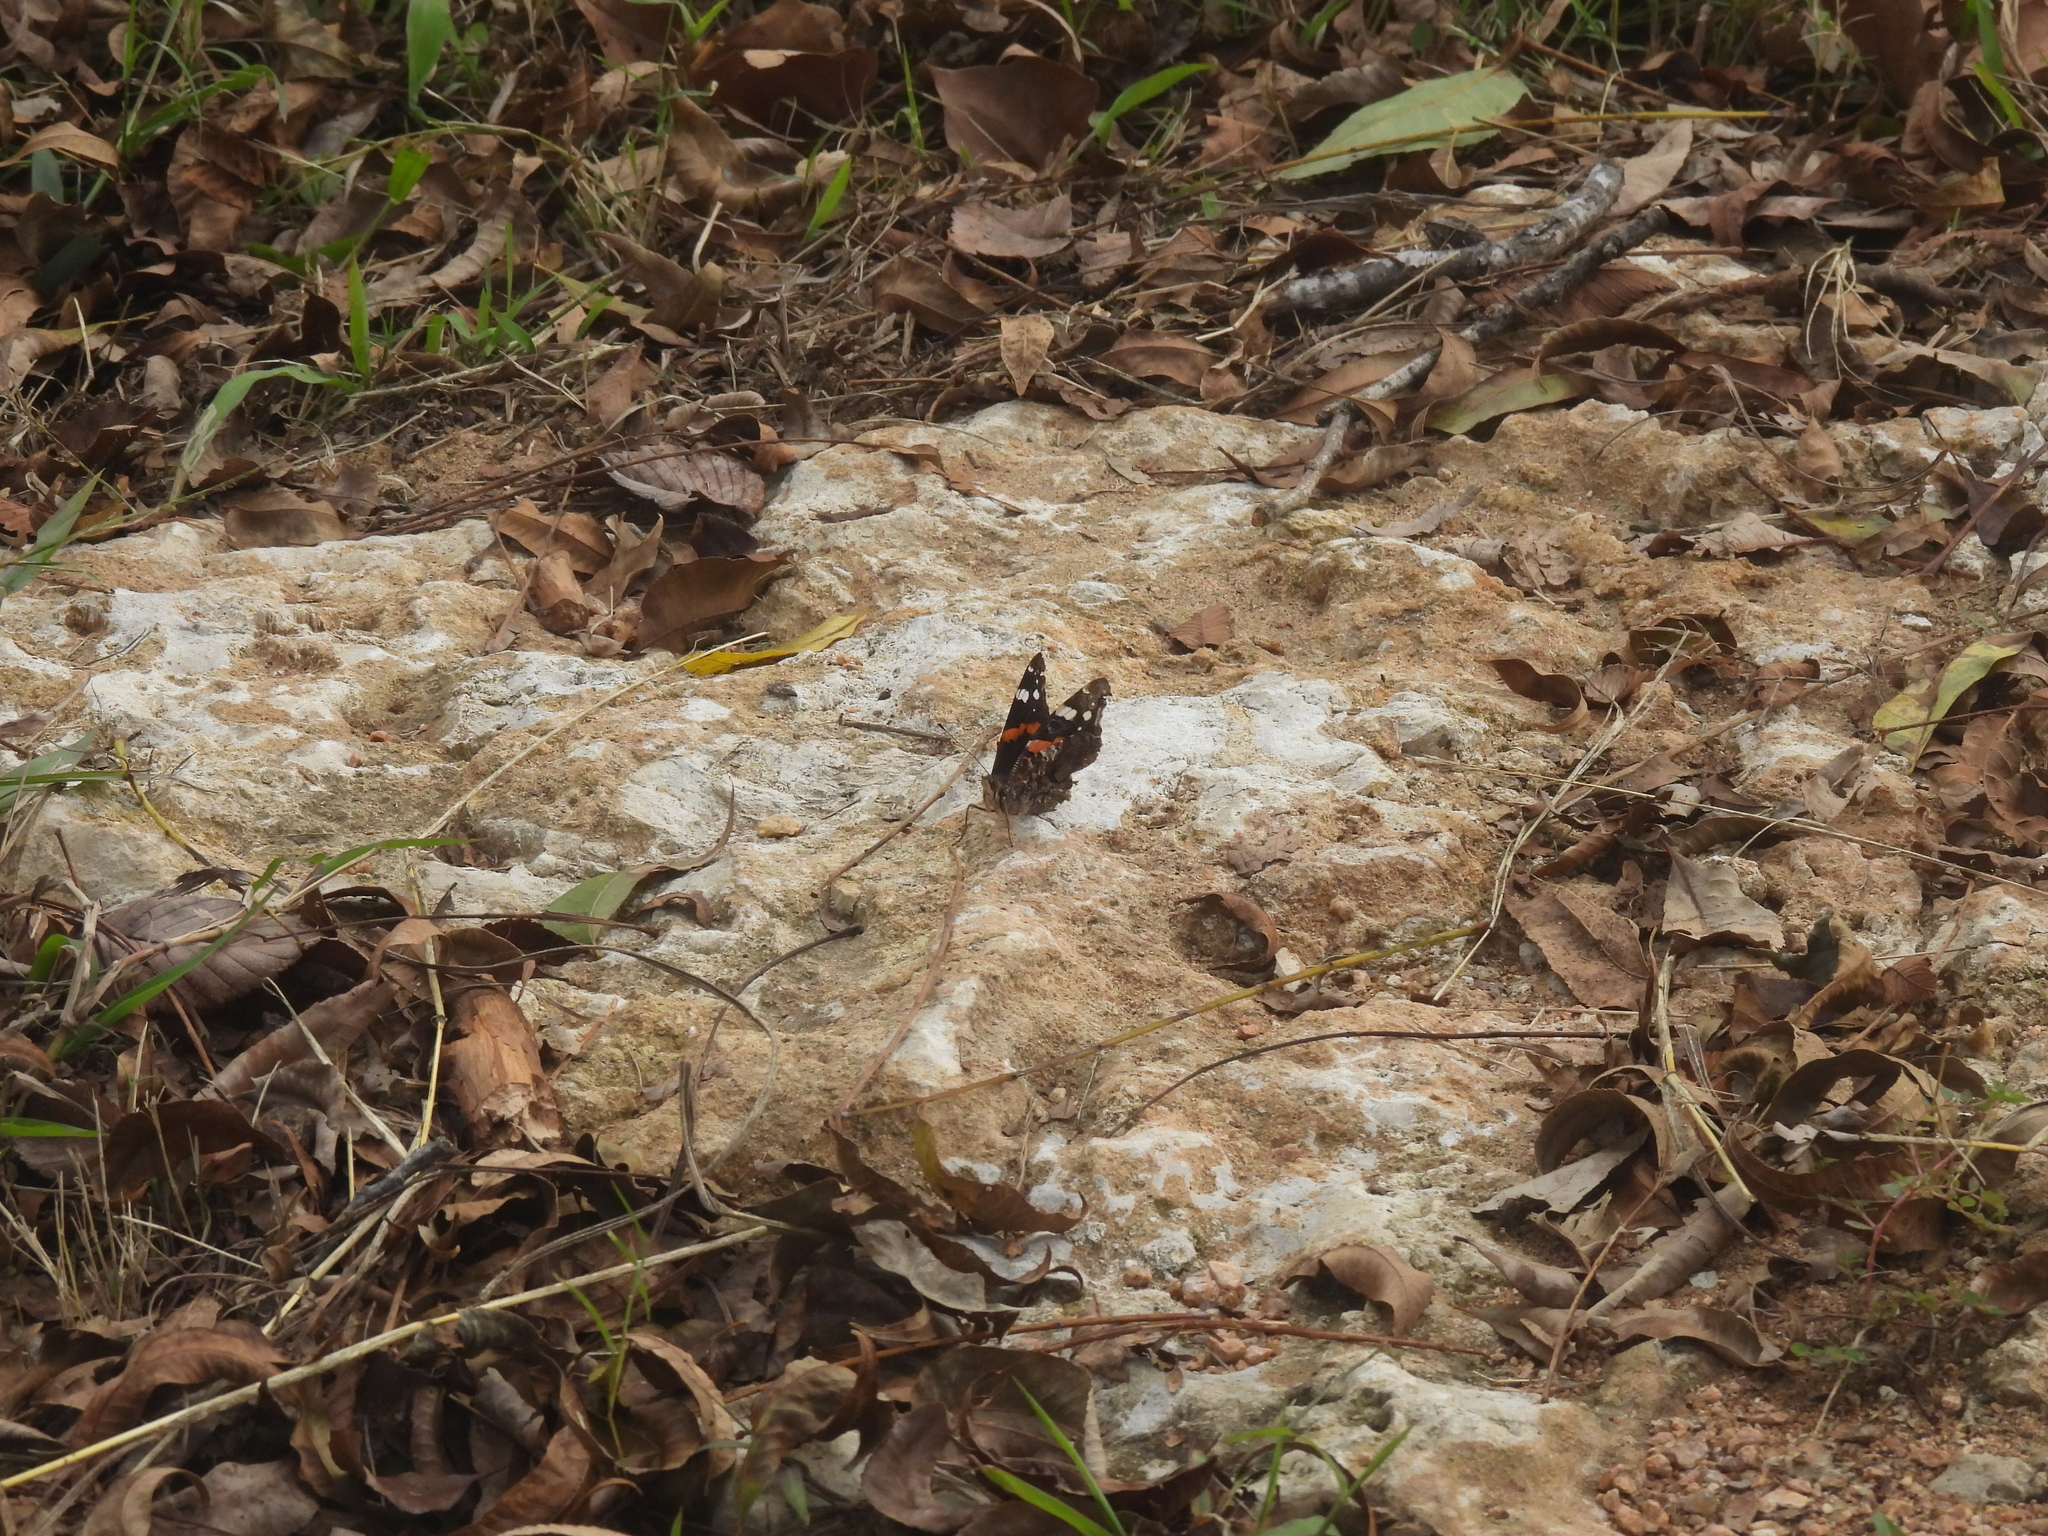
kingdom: Animalia
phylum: Arthropoda
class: Insecta
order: Lepidoptera
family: Nymphalidae
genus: Vanessa
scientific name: Vanessa atalanta
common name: Red admiral
